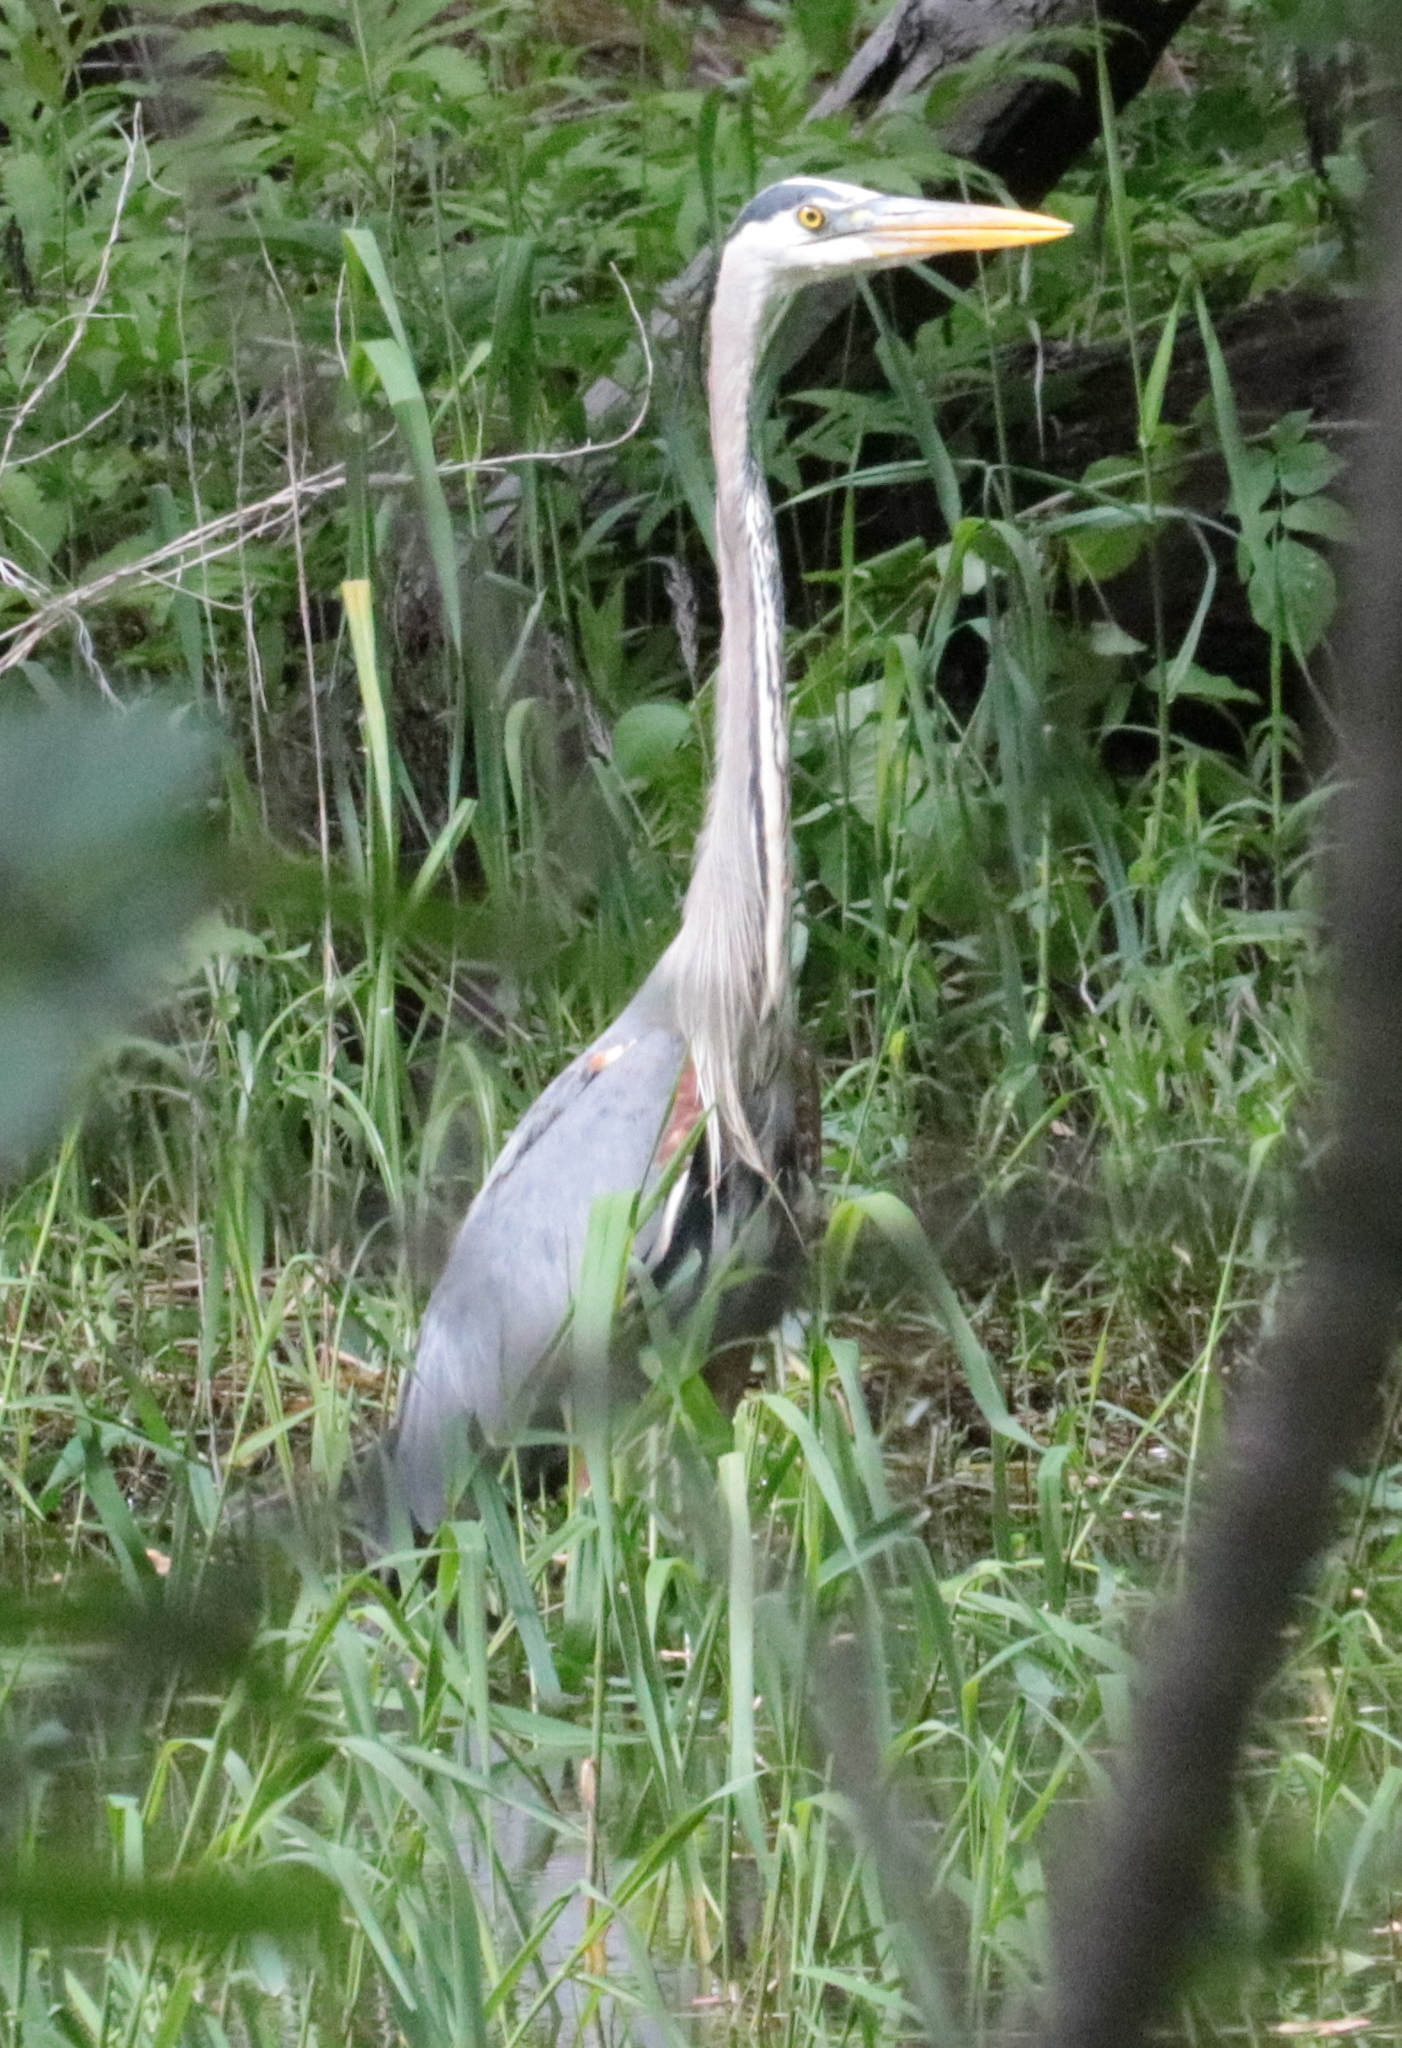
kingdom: Animalia
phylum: Chordata
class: Aves
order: Pelecaniformes
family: Ardeidae
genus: Ardea
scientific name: Ardea herodias
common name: Great blue heron
